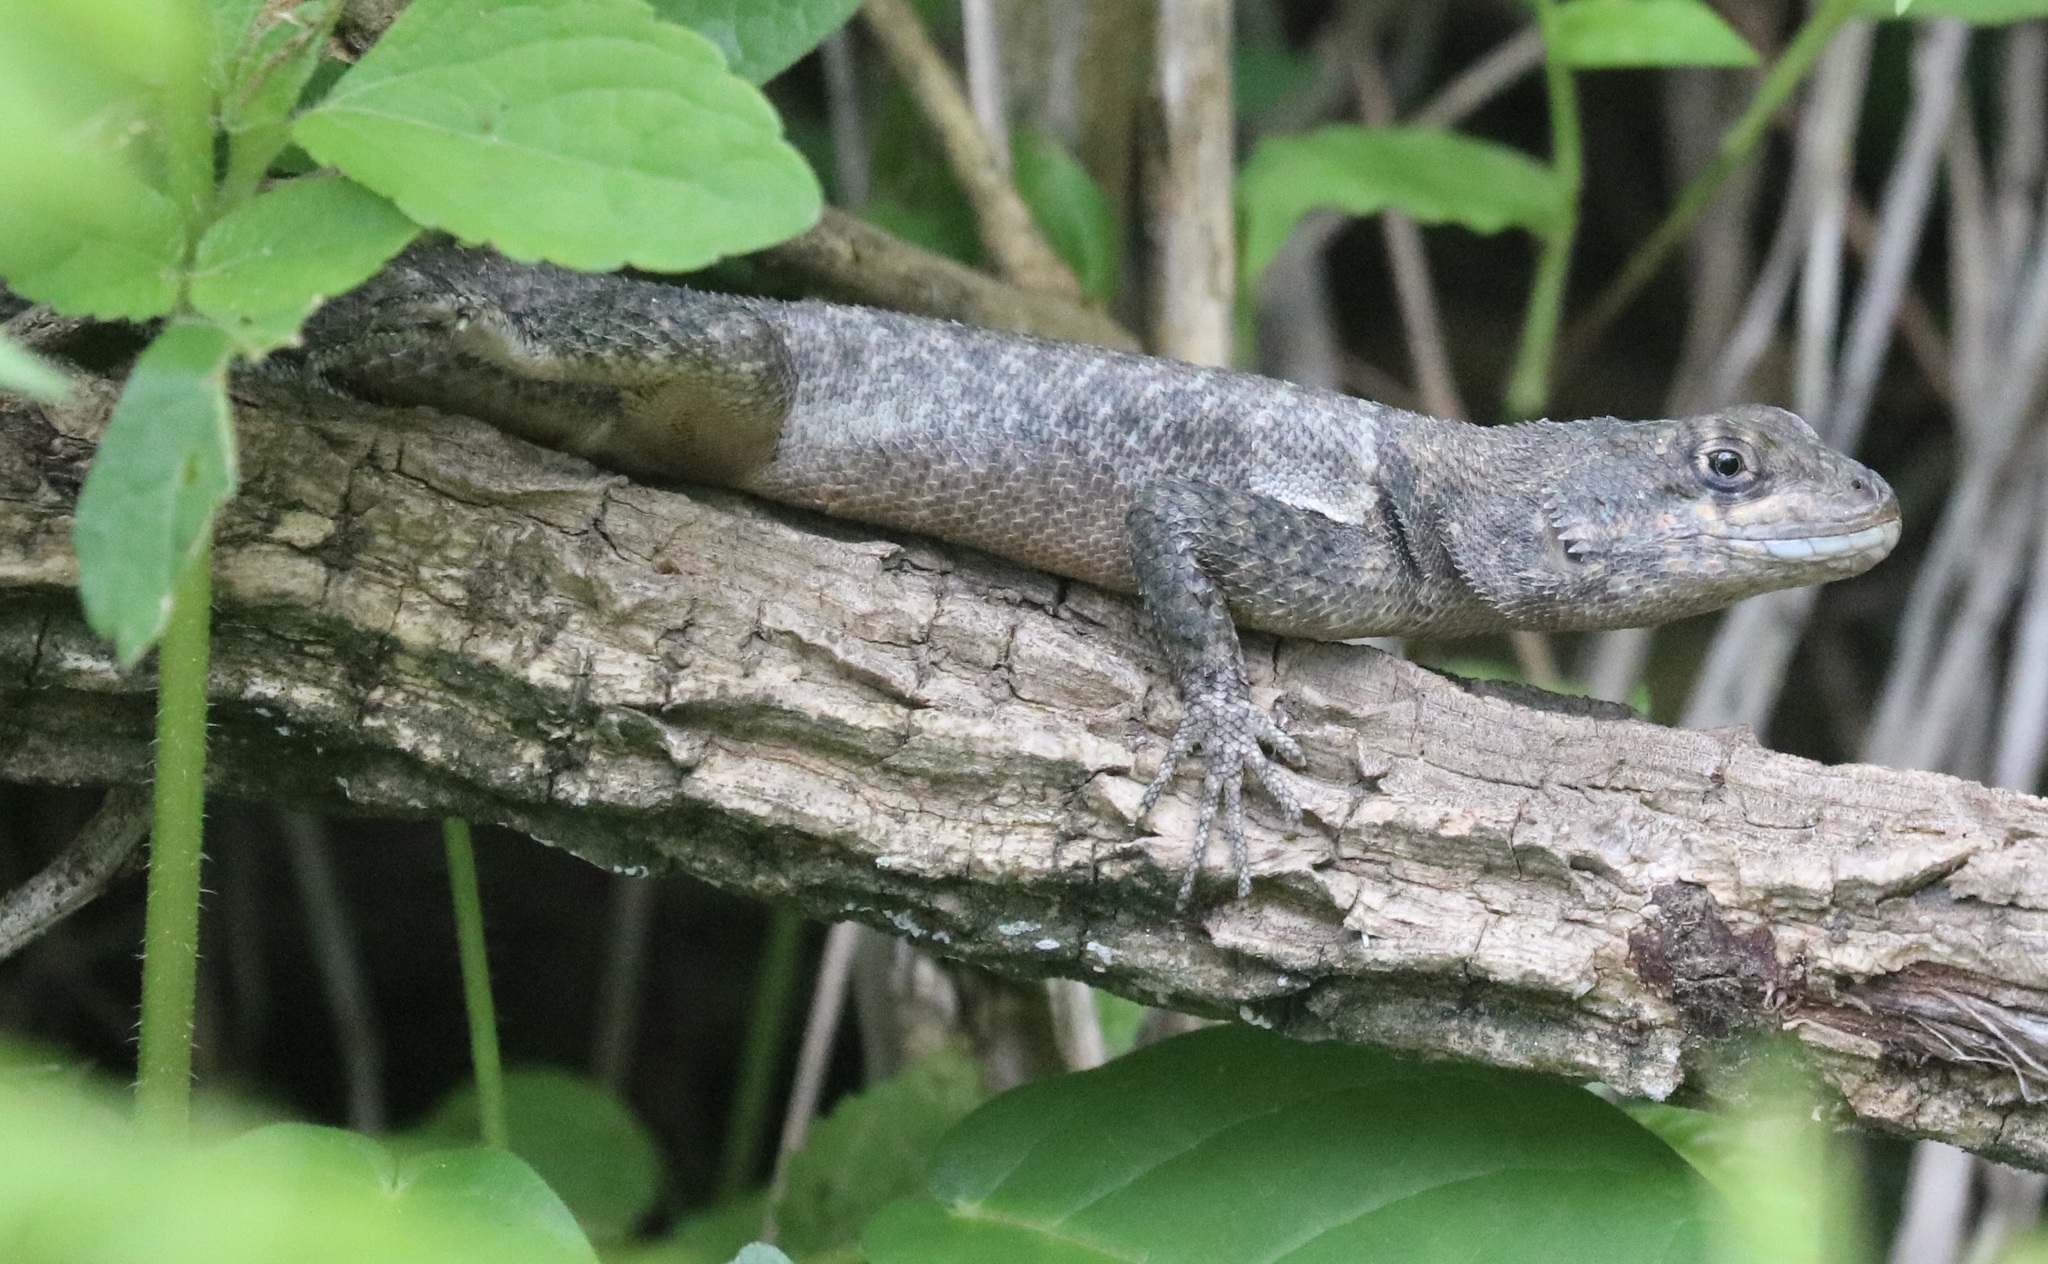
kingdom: Animalia
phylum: Chordata
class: Squamata
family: Tropiduridae
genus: Tropidurus
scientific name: Tropidurus hispidus
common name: Peters' lava lizard
